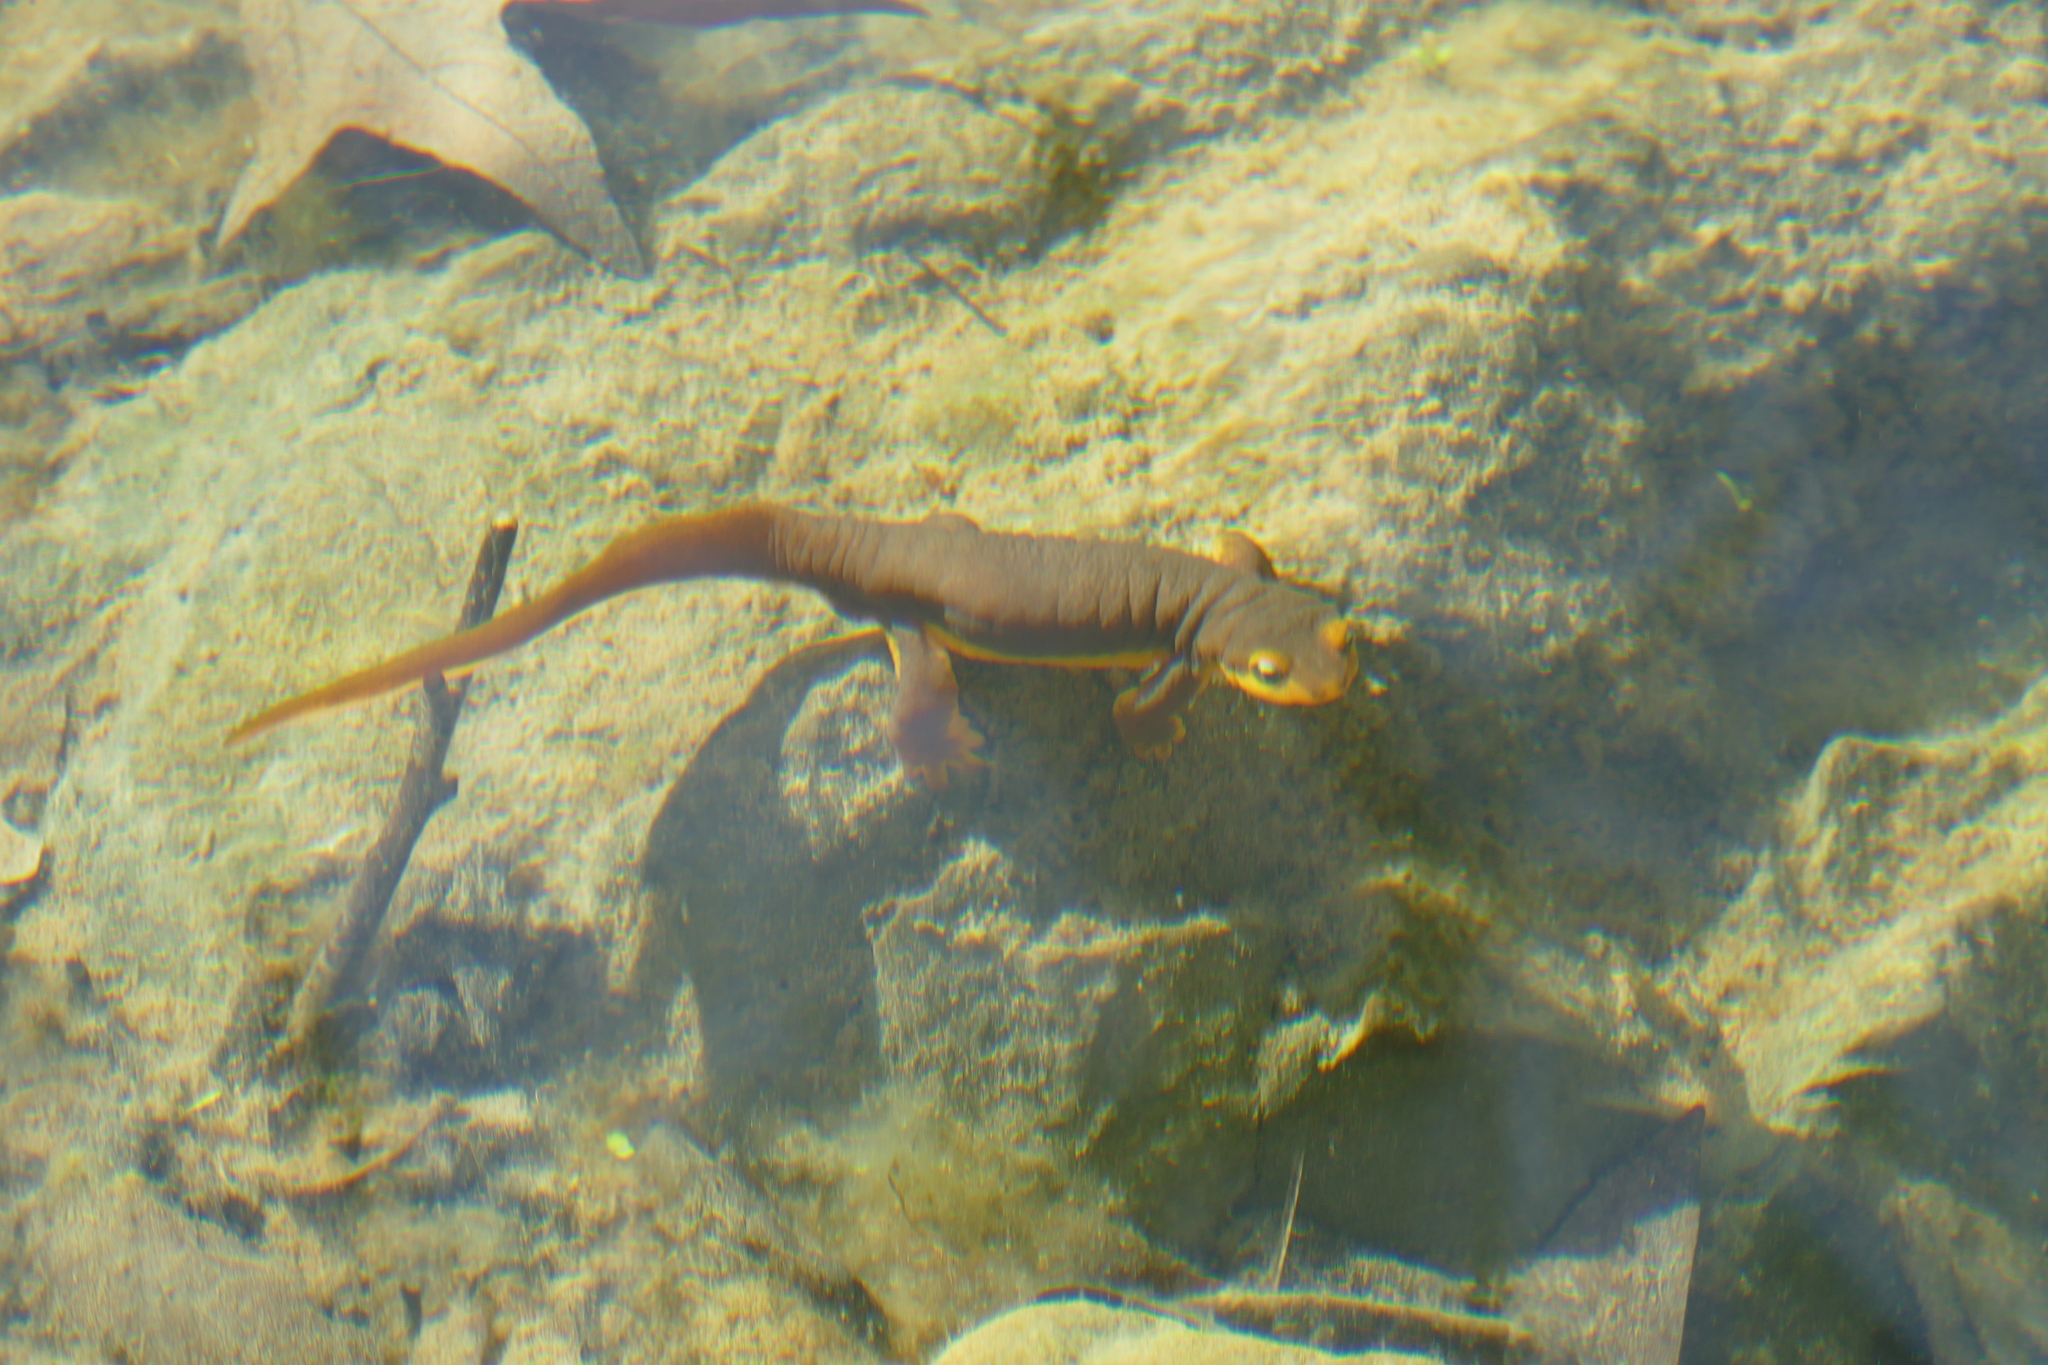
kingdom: Animalia
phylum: Chordata
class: Amphibia
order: Caudata
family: Salamandridae
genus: Taricha
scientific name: Taricha torosa
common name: California newt
